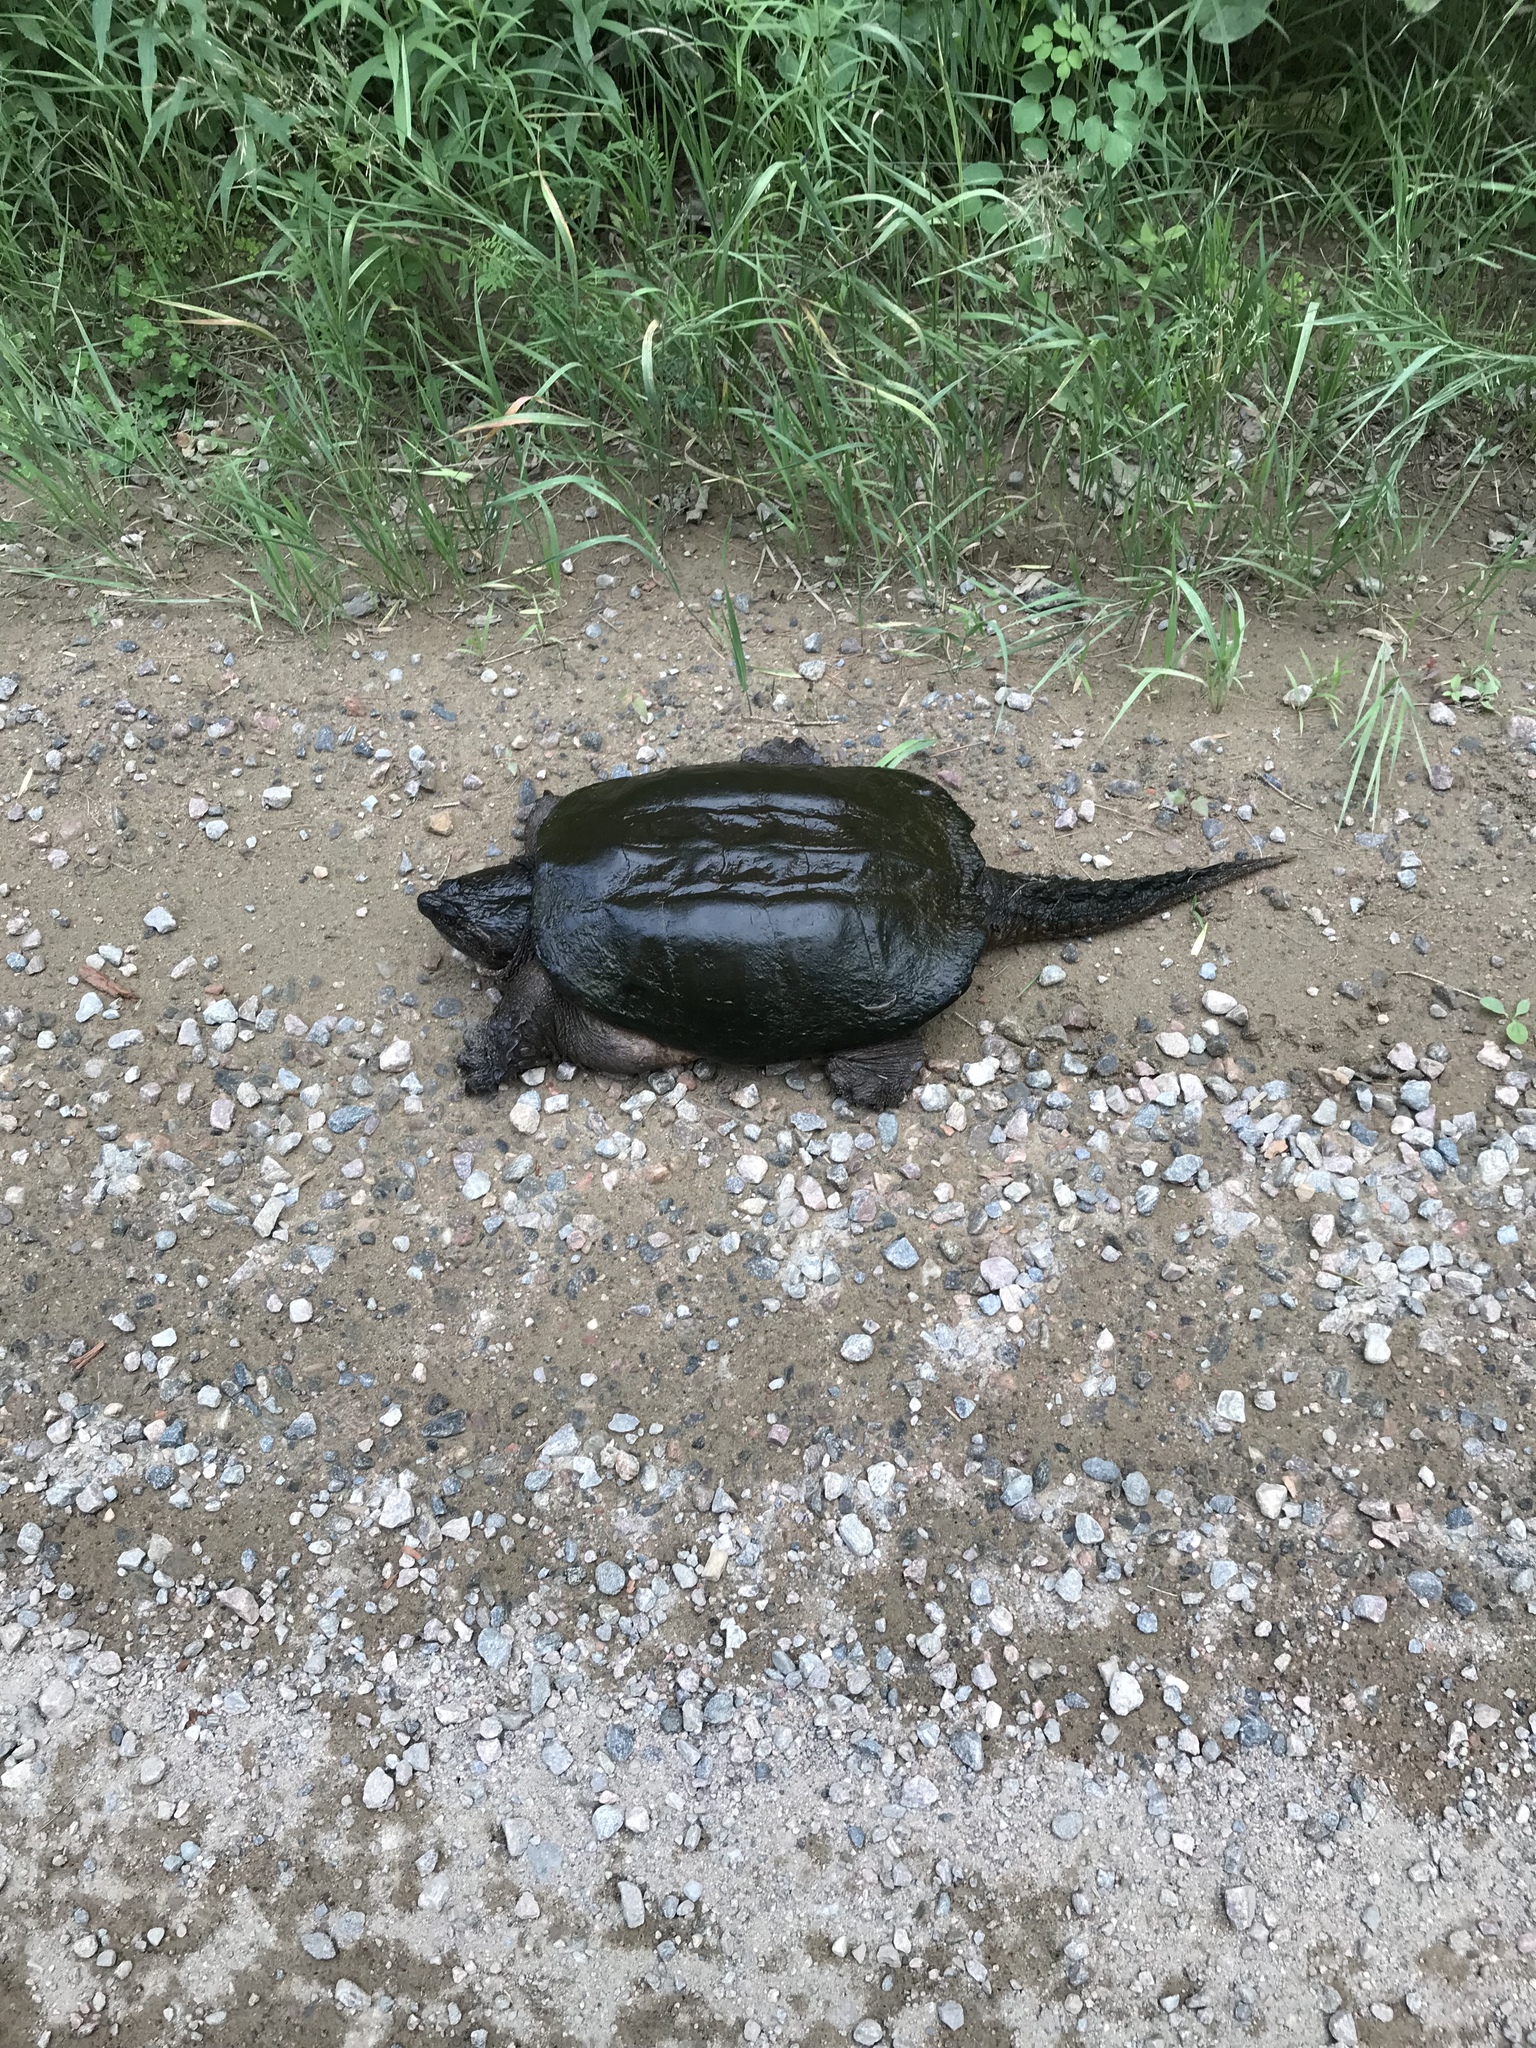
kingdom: Animalia
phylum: Chordata
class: Testudines
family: Chelydridae
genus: Chelydra
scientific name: Chelydra serpentina
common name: Common snapping turtle
